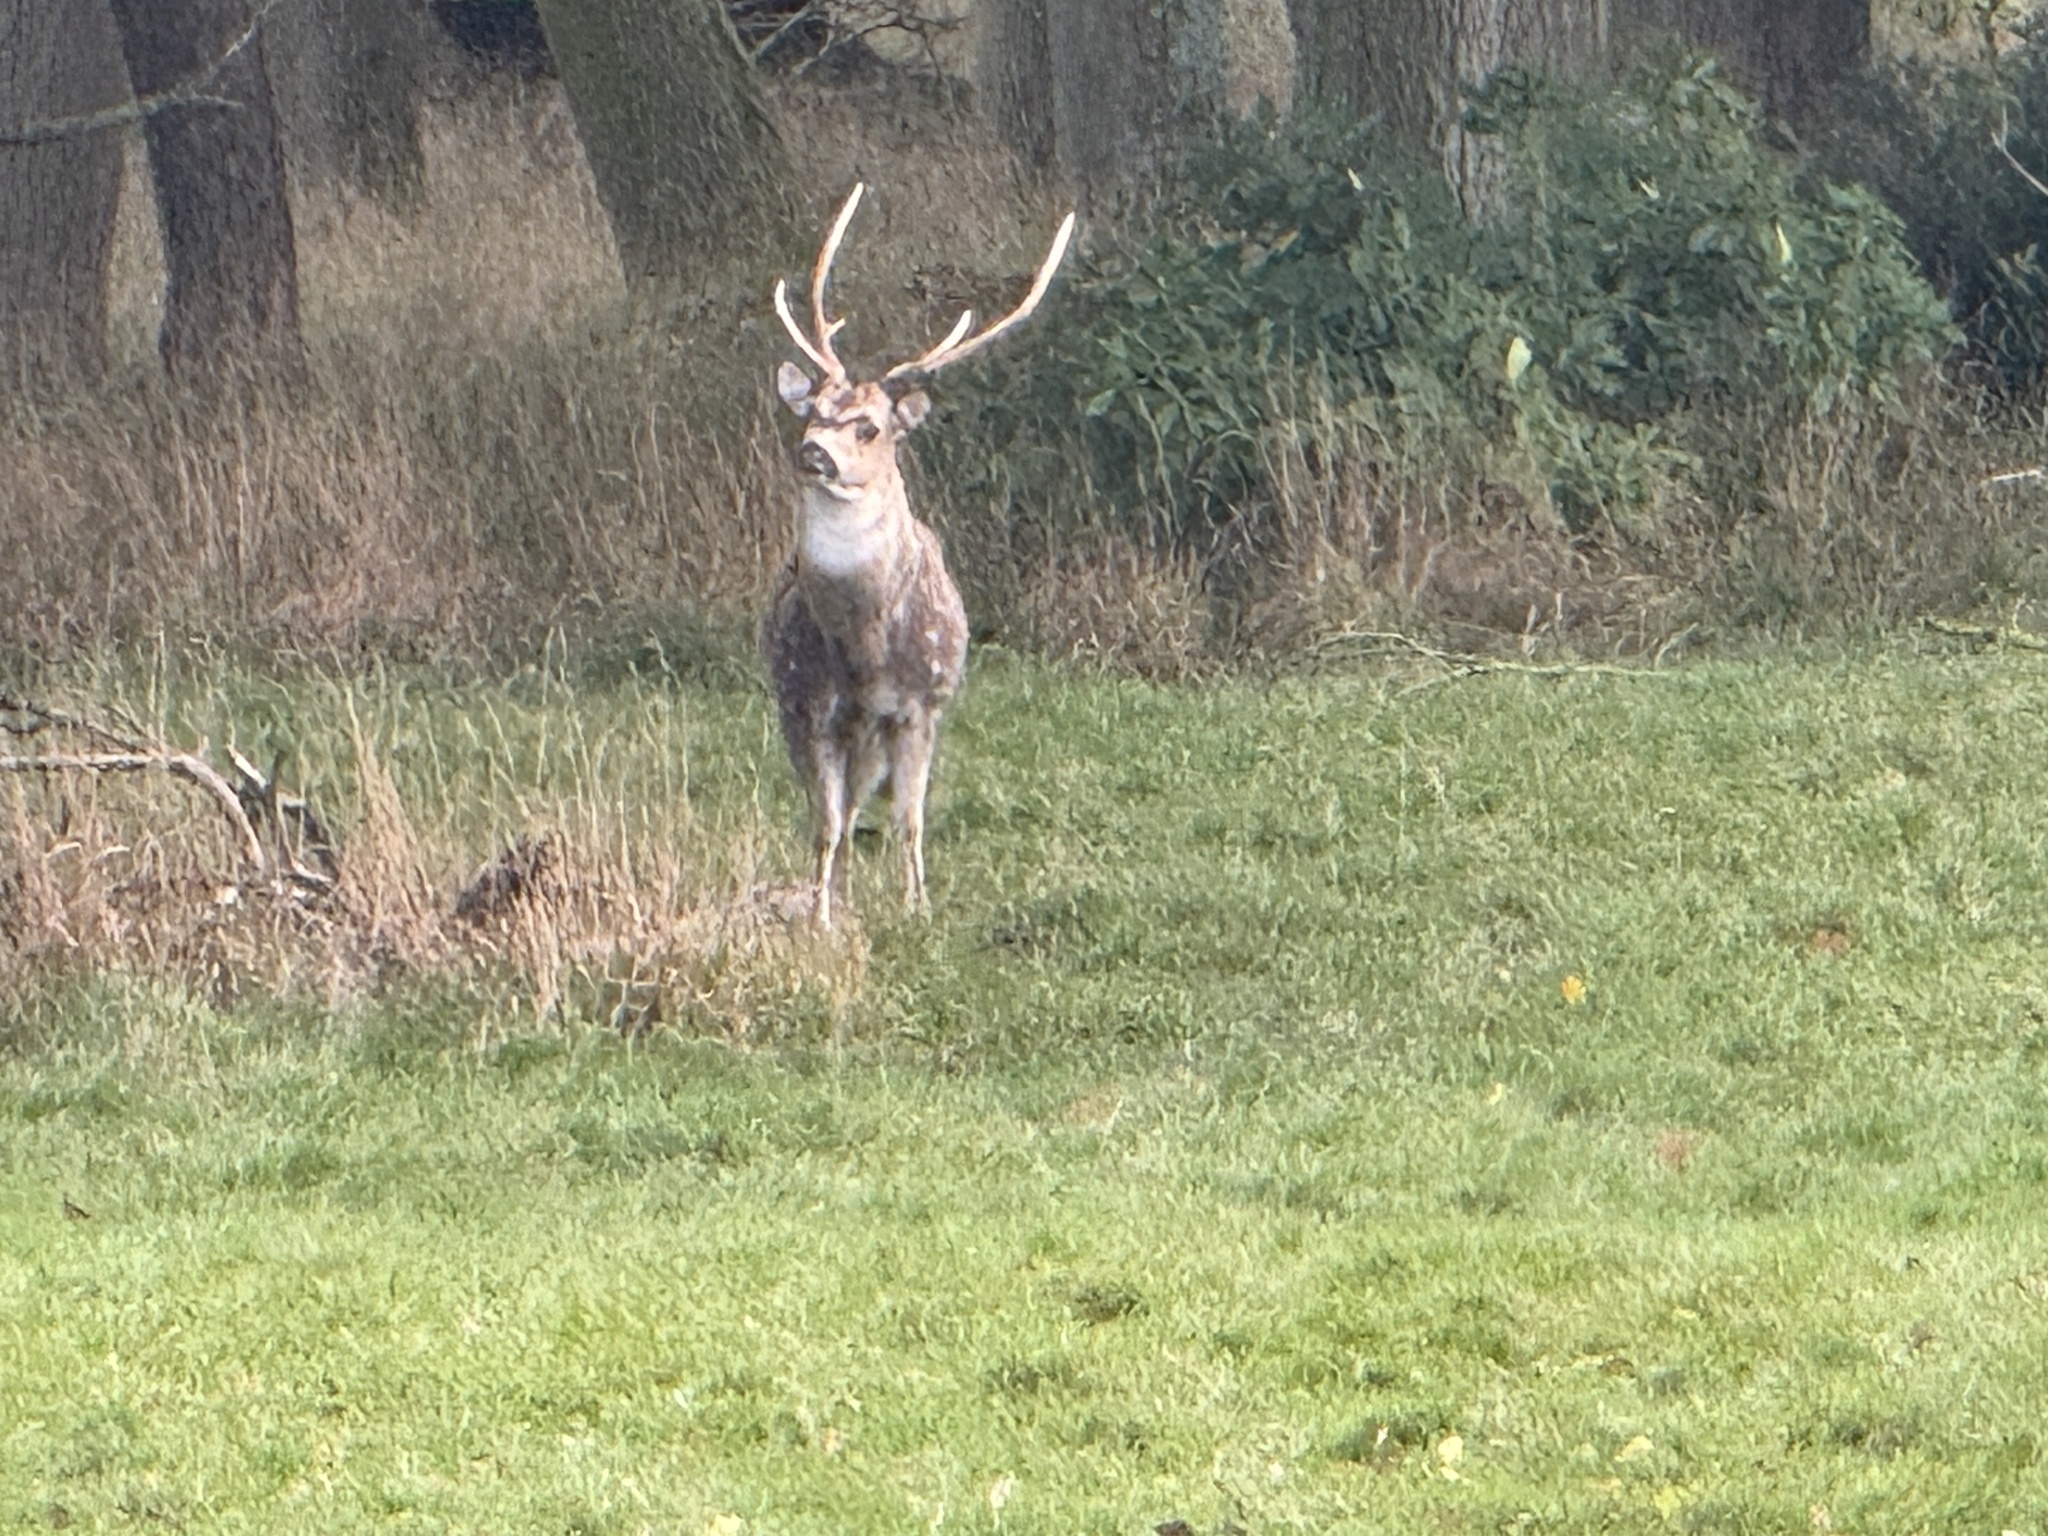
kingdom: Animalia
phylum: Chordata
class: Mammalia
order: Artiodactyla
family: Cervidae
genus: Cervus
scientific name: Cervus nippon
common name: Sika deer
